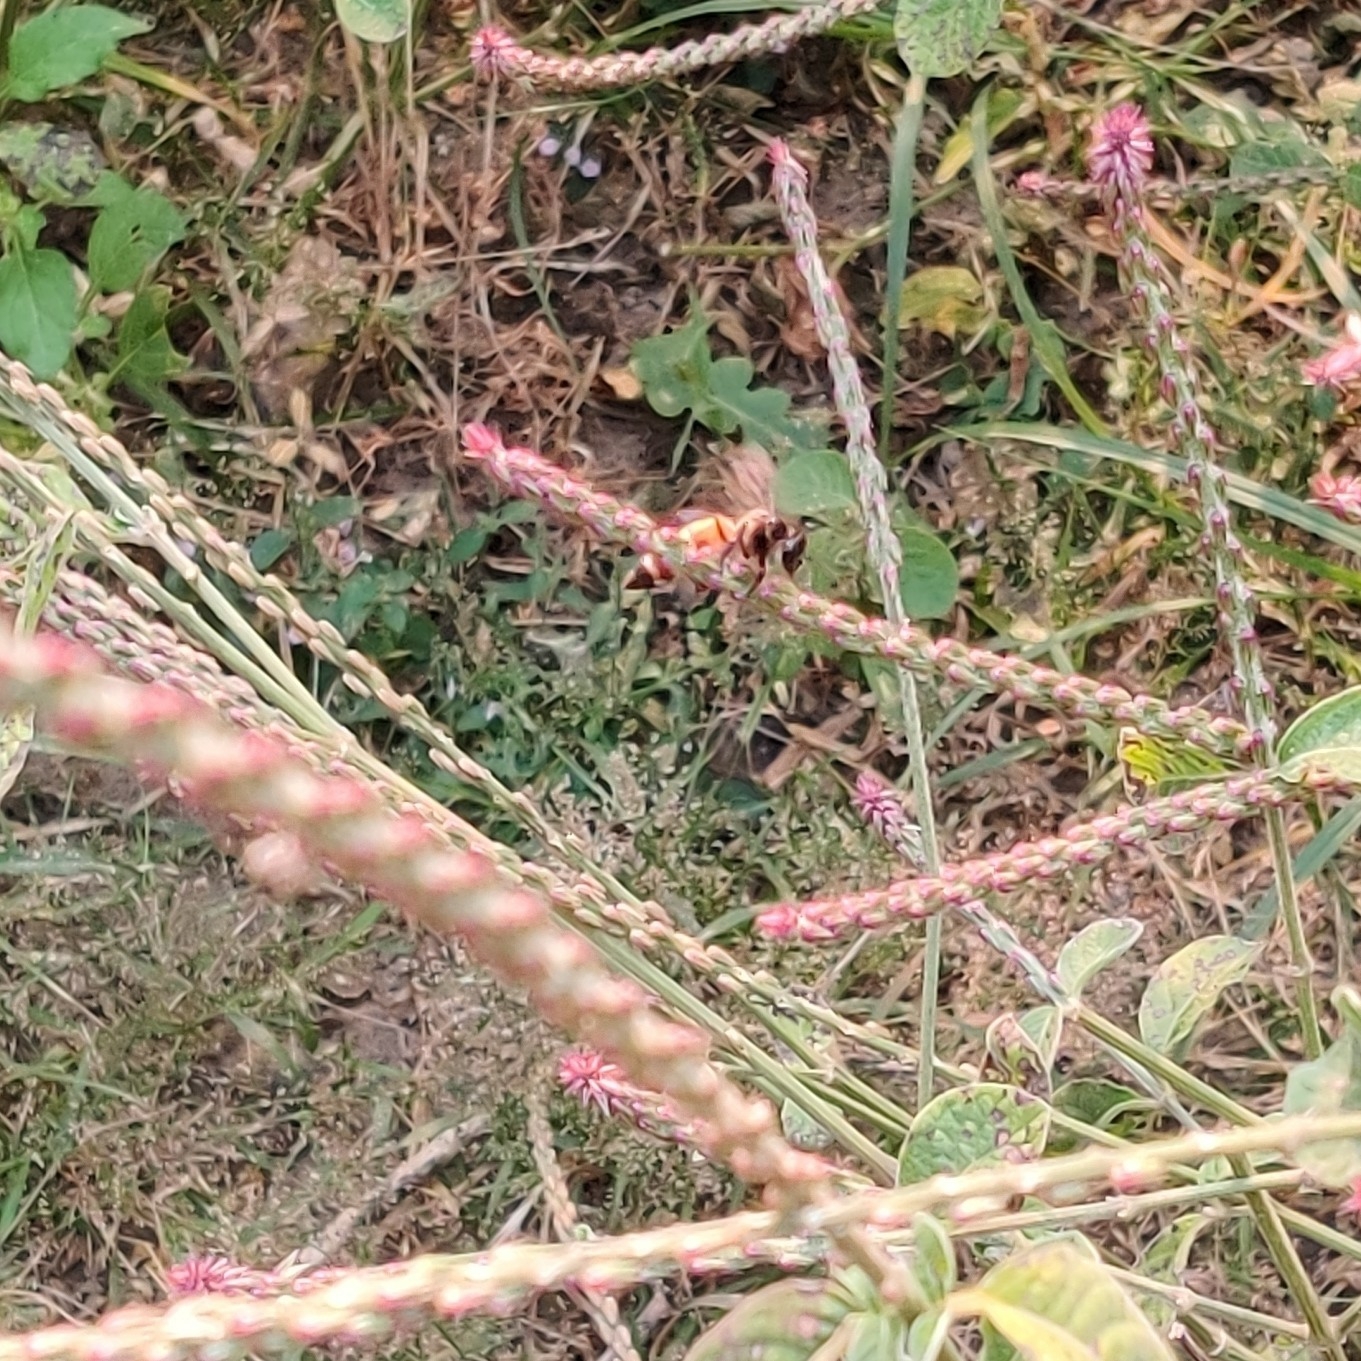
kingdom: Animalia
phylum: Arthropoda
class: Insecta
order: Hymenoptera
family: Apidae
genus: Apis
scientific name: Apis dorsata
